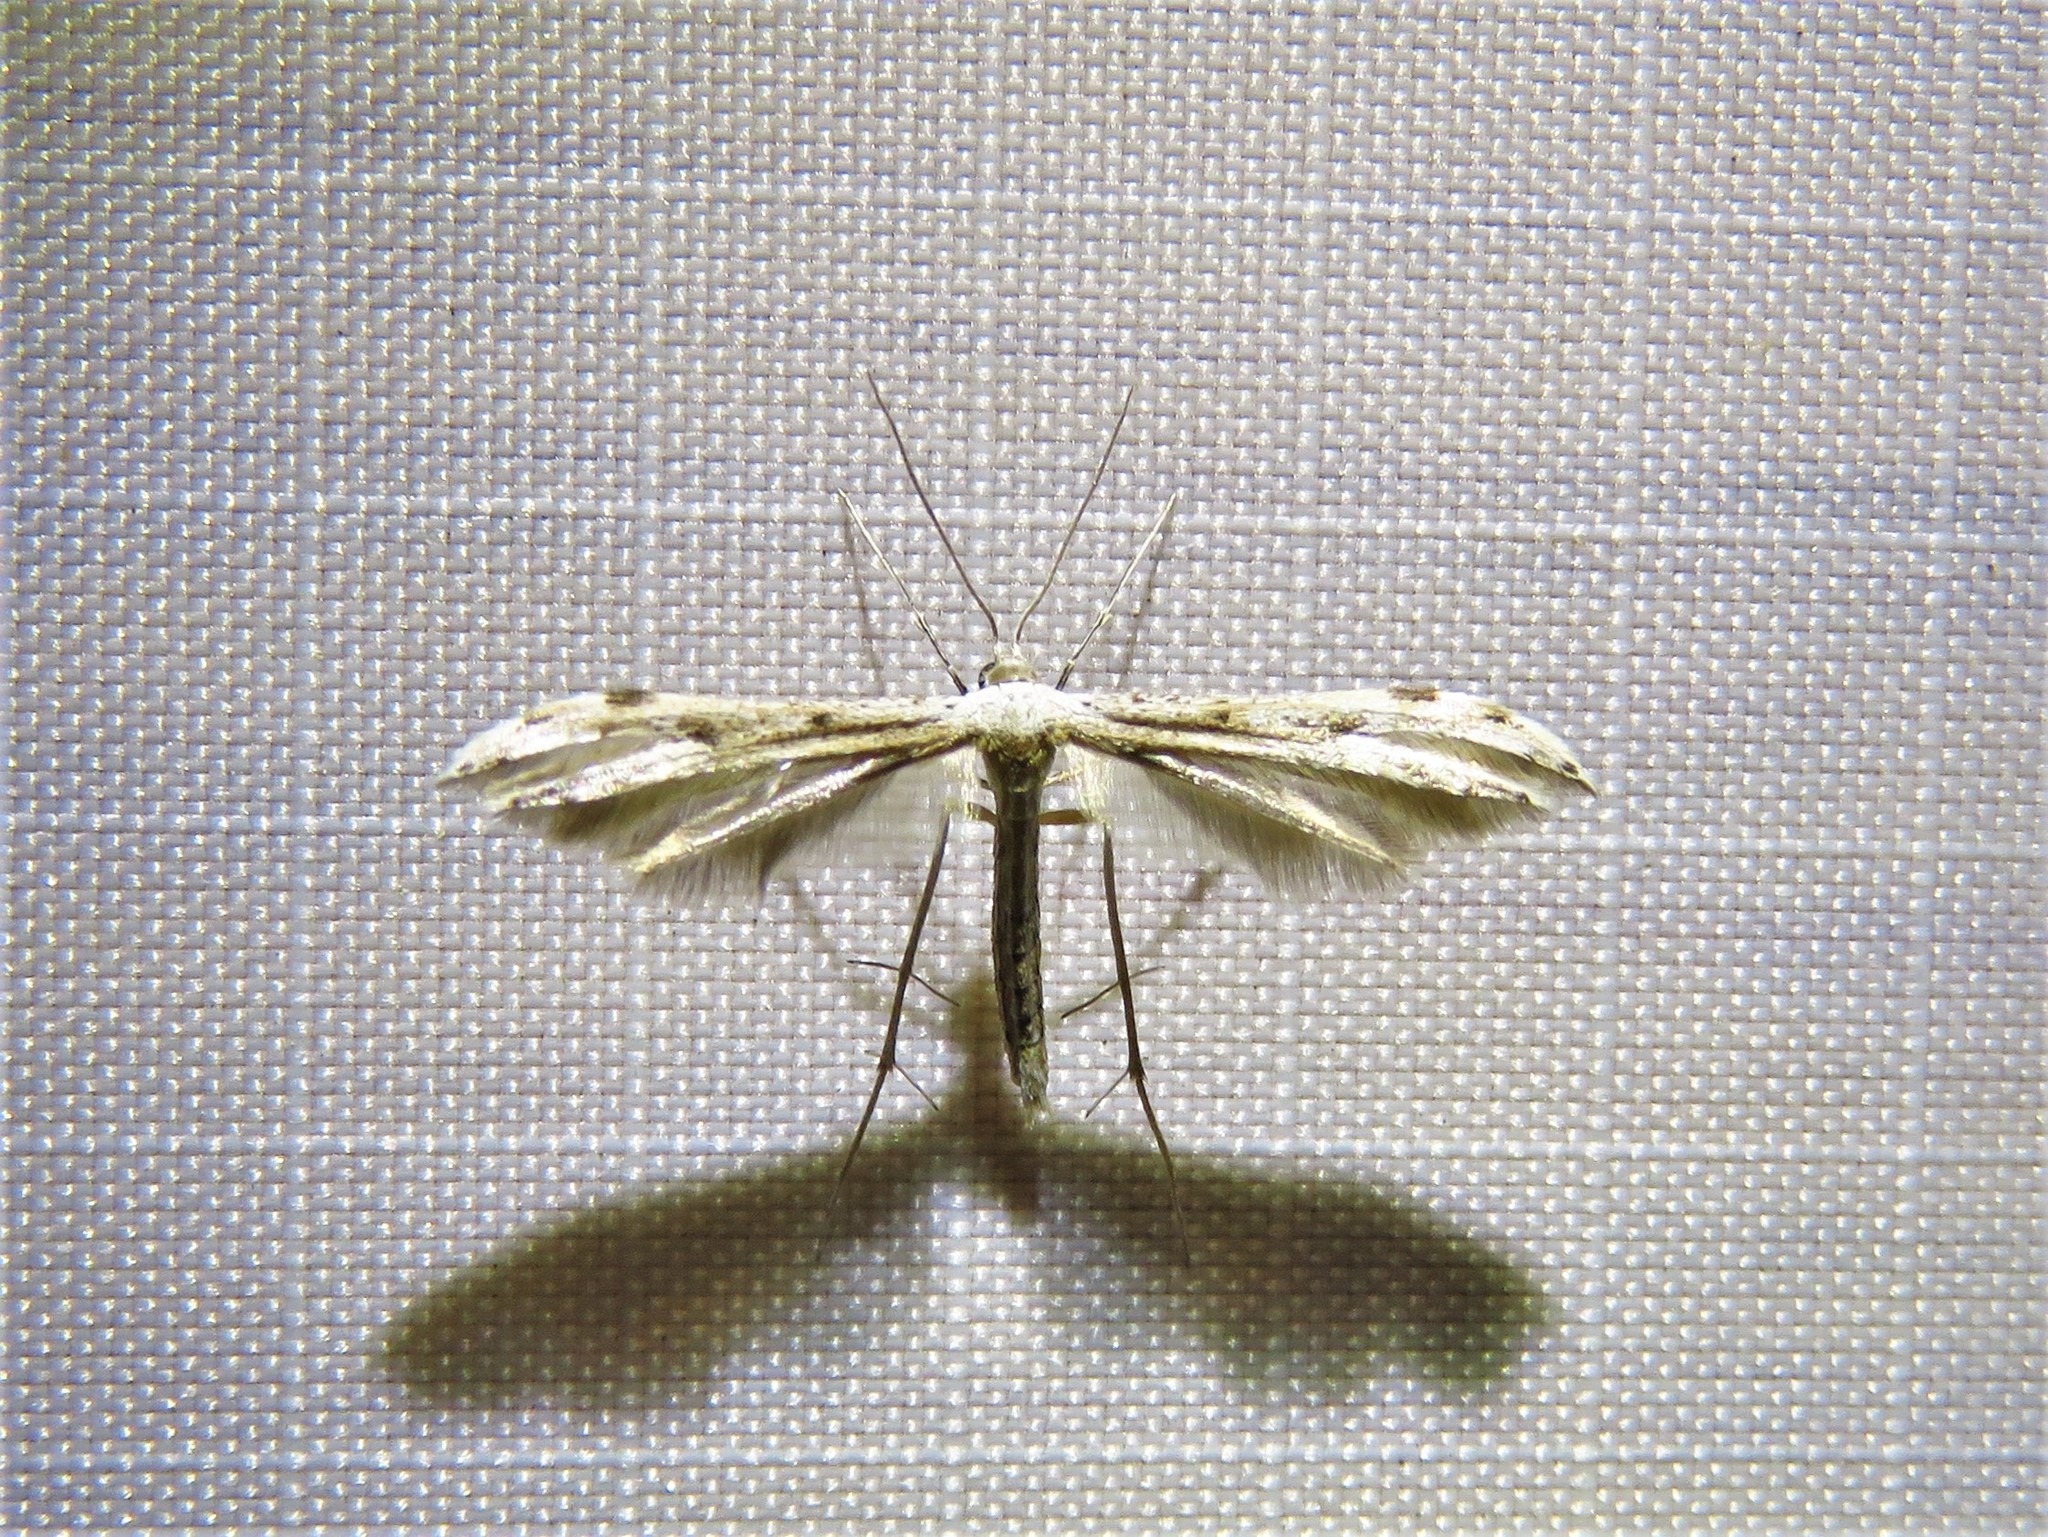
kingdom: Animalia
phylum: Arthropoda
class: Insecta
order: Lepidoptera
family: Pterophoridae
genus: Pselnophorus
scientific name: Pselnophorus belfragei
